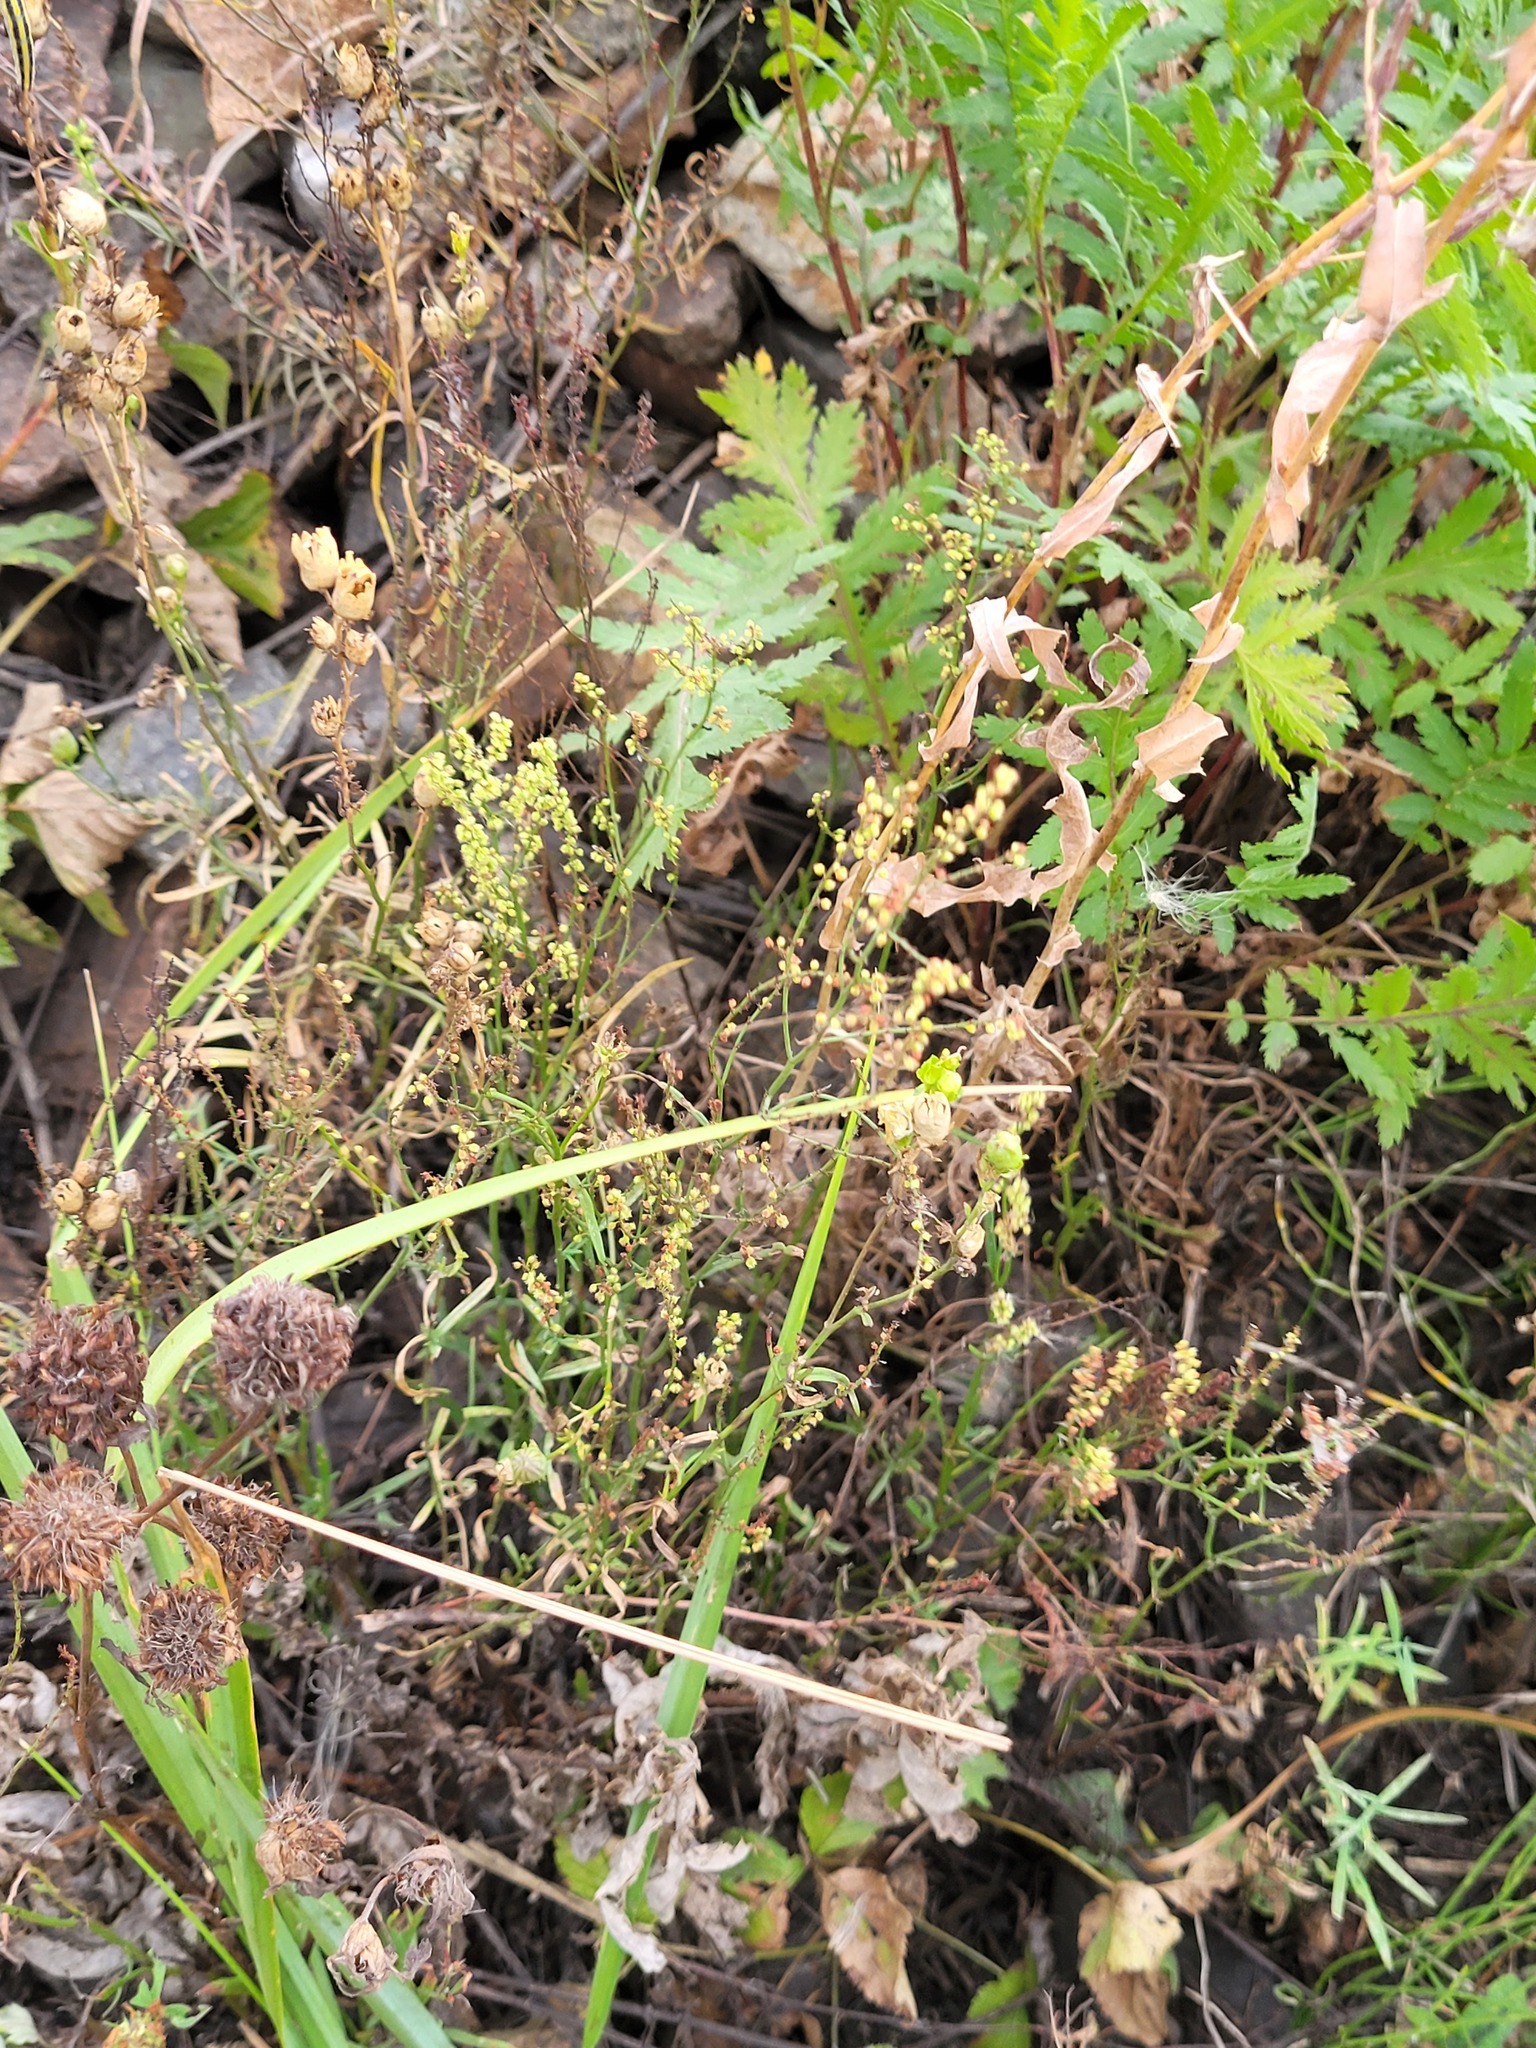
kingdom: Plantae
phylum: Tracheophyta
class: Magnoliopsida
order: Caryophyllales
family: Polygonaceae
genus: Rumex
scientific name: Rumex acetosella
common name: Common sheep sorrel
